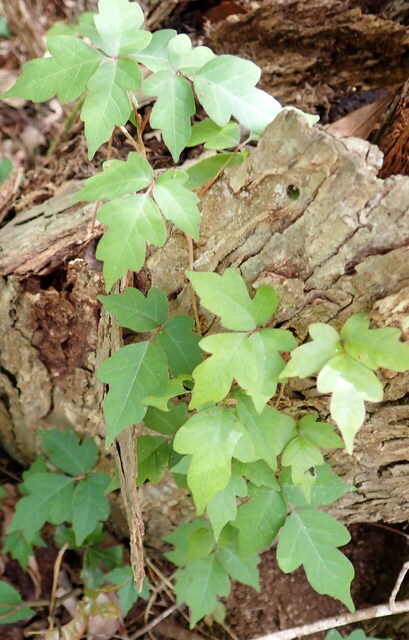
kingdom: Plantae
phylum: Tracheophyta
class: Magnoliopsida
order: Sapindales
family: Anacardiaceae
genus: Toxicodendron
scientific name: Toxicodendron radicans
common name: Poison ivy
